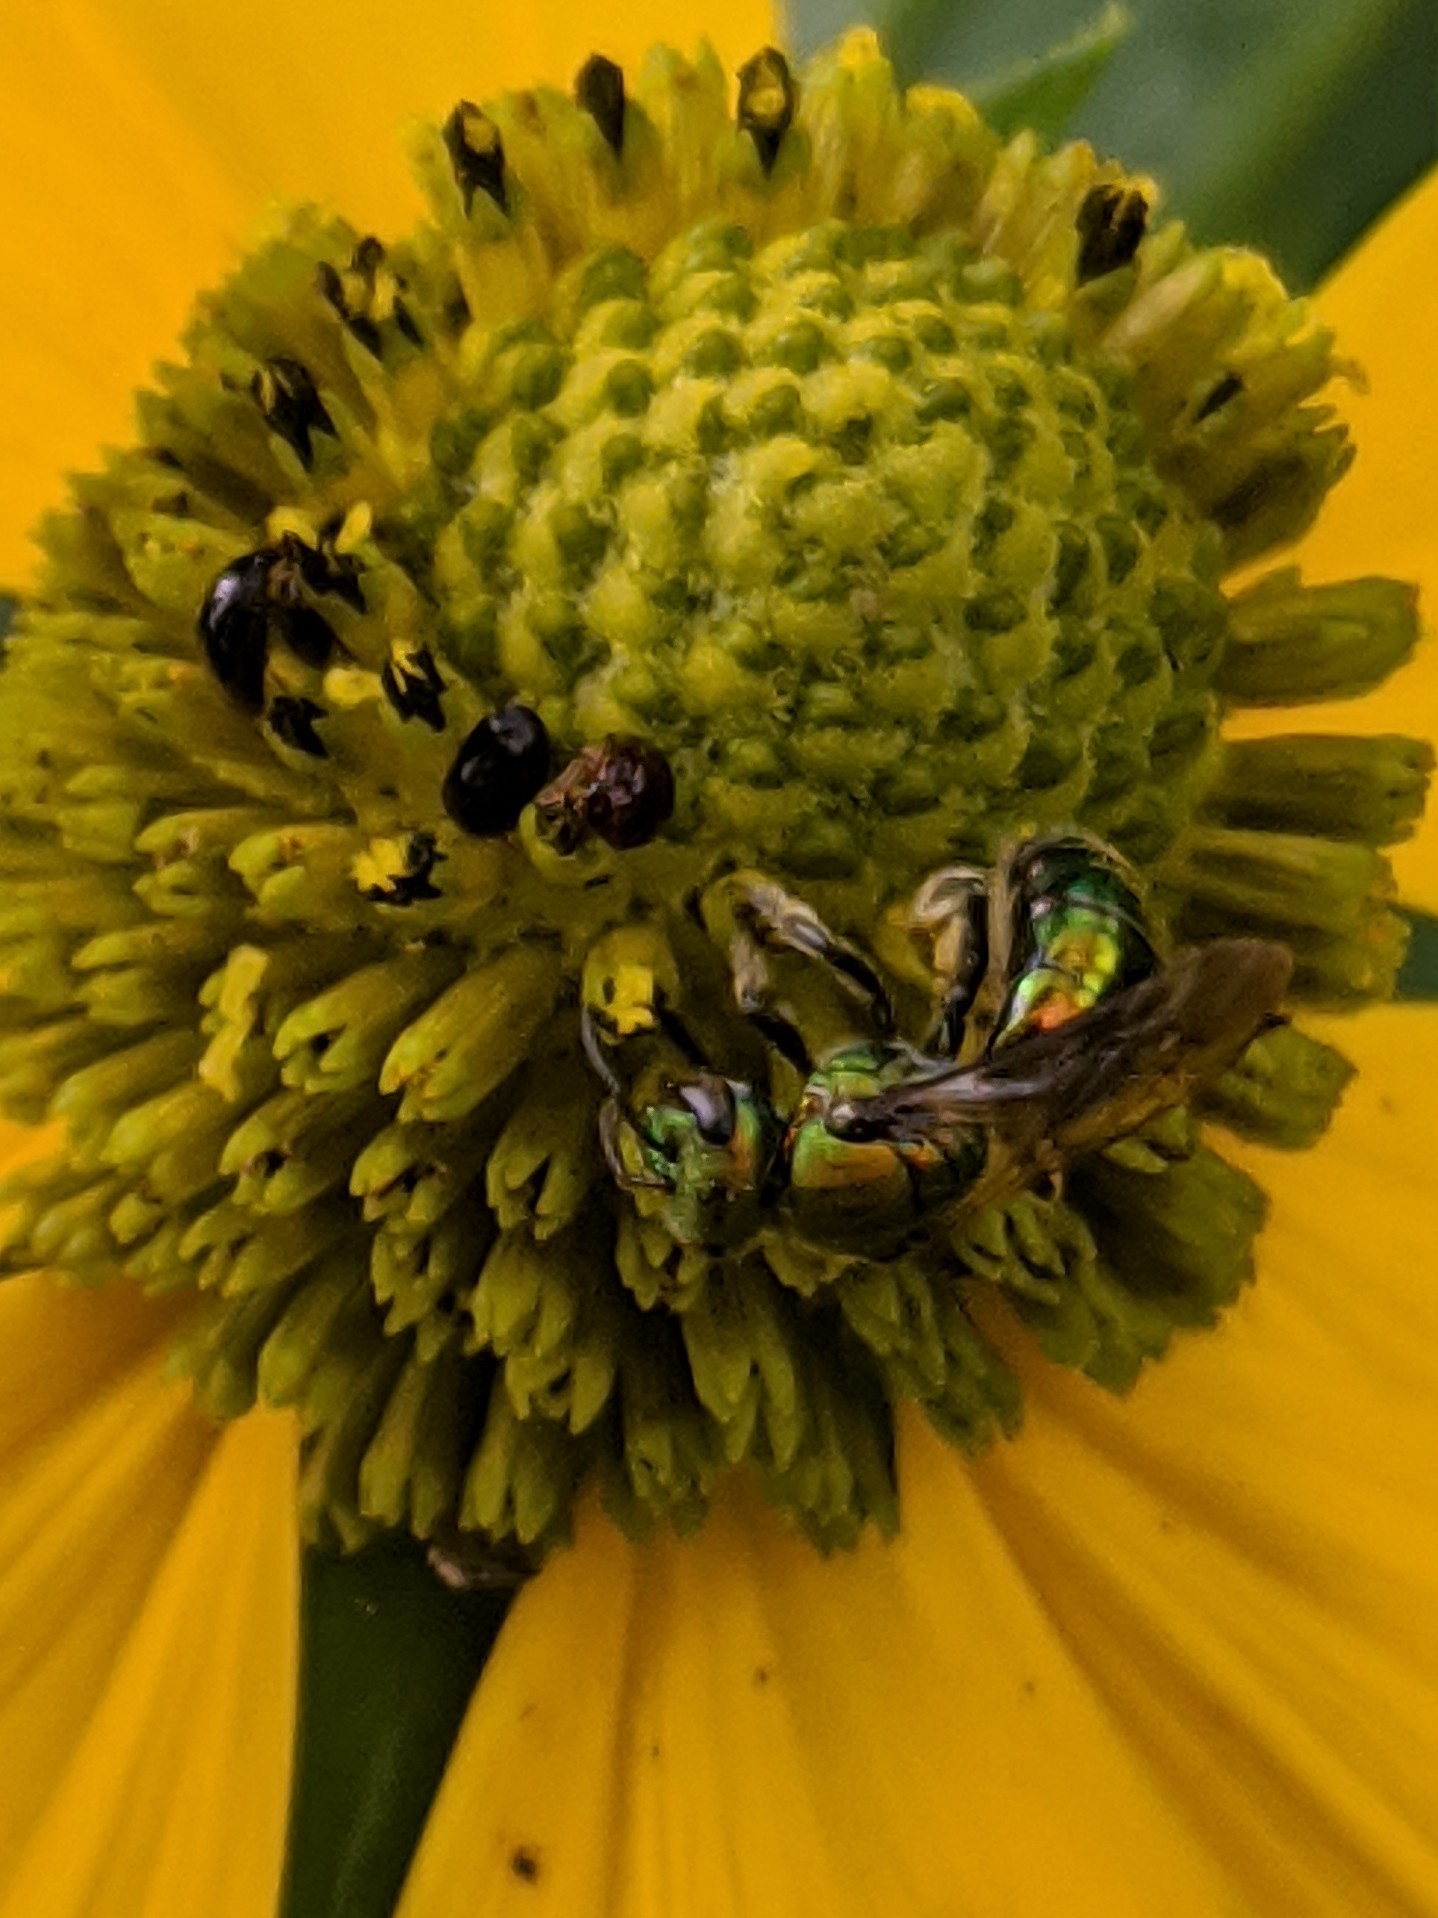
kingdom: Animalia
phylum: Arthropoda
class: Insecta
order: Hymenoptera
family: Halictidae
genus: Augochlora
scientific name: Augochlora pura
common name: Pure green sweat bee
